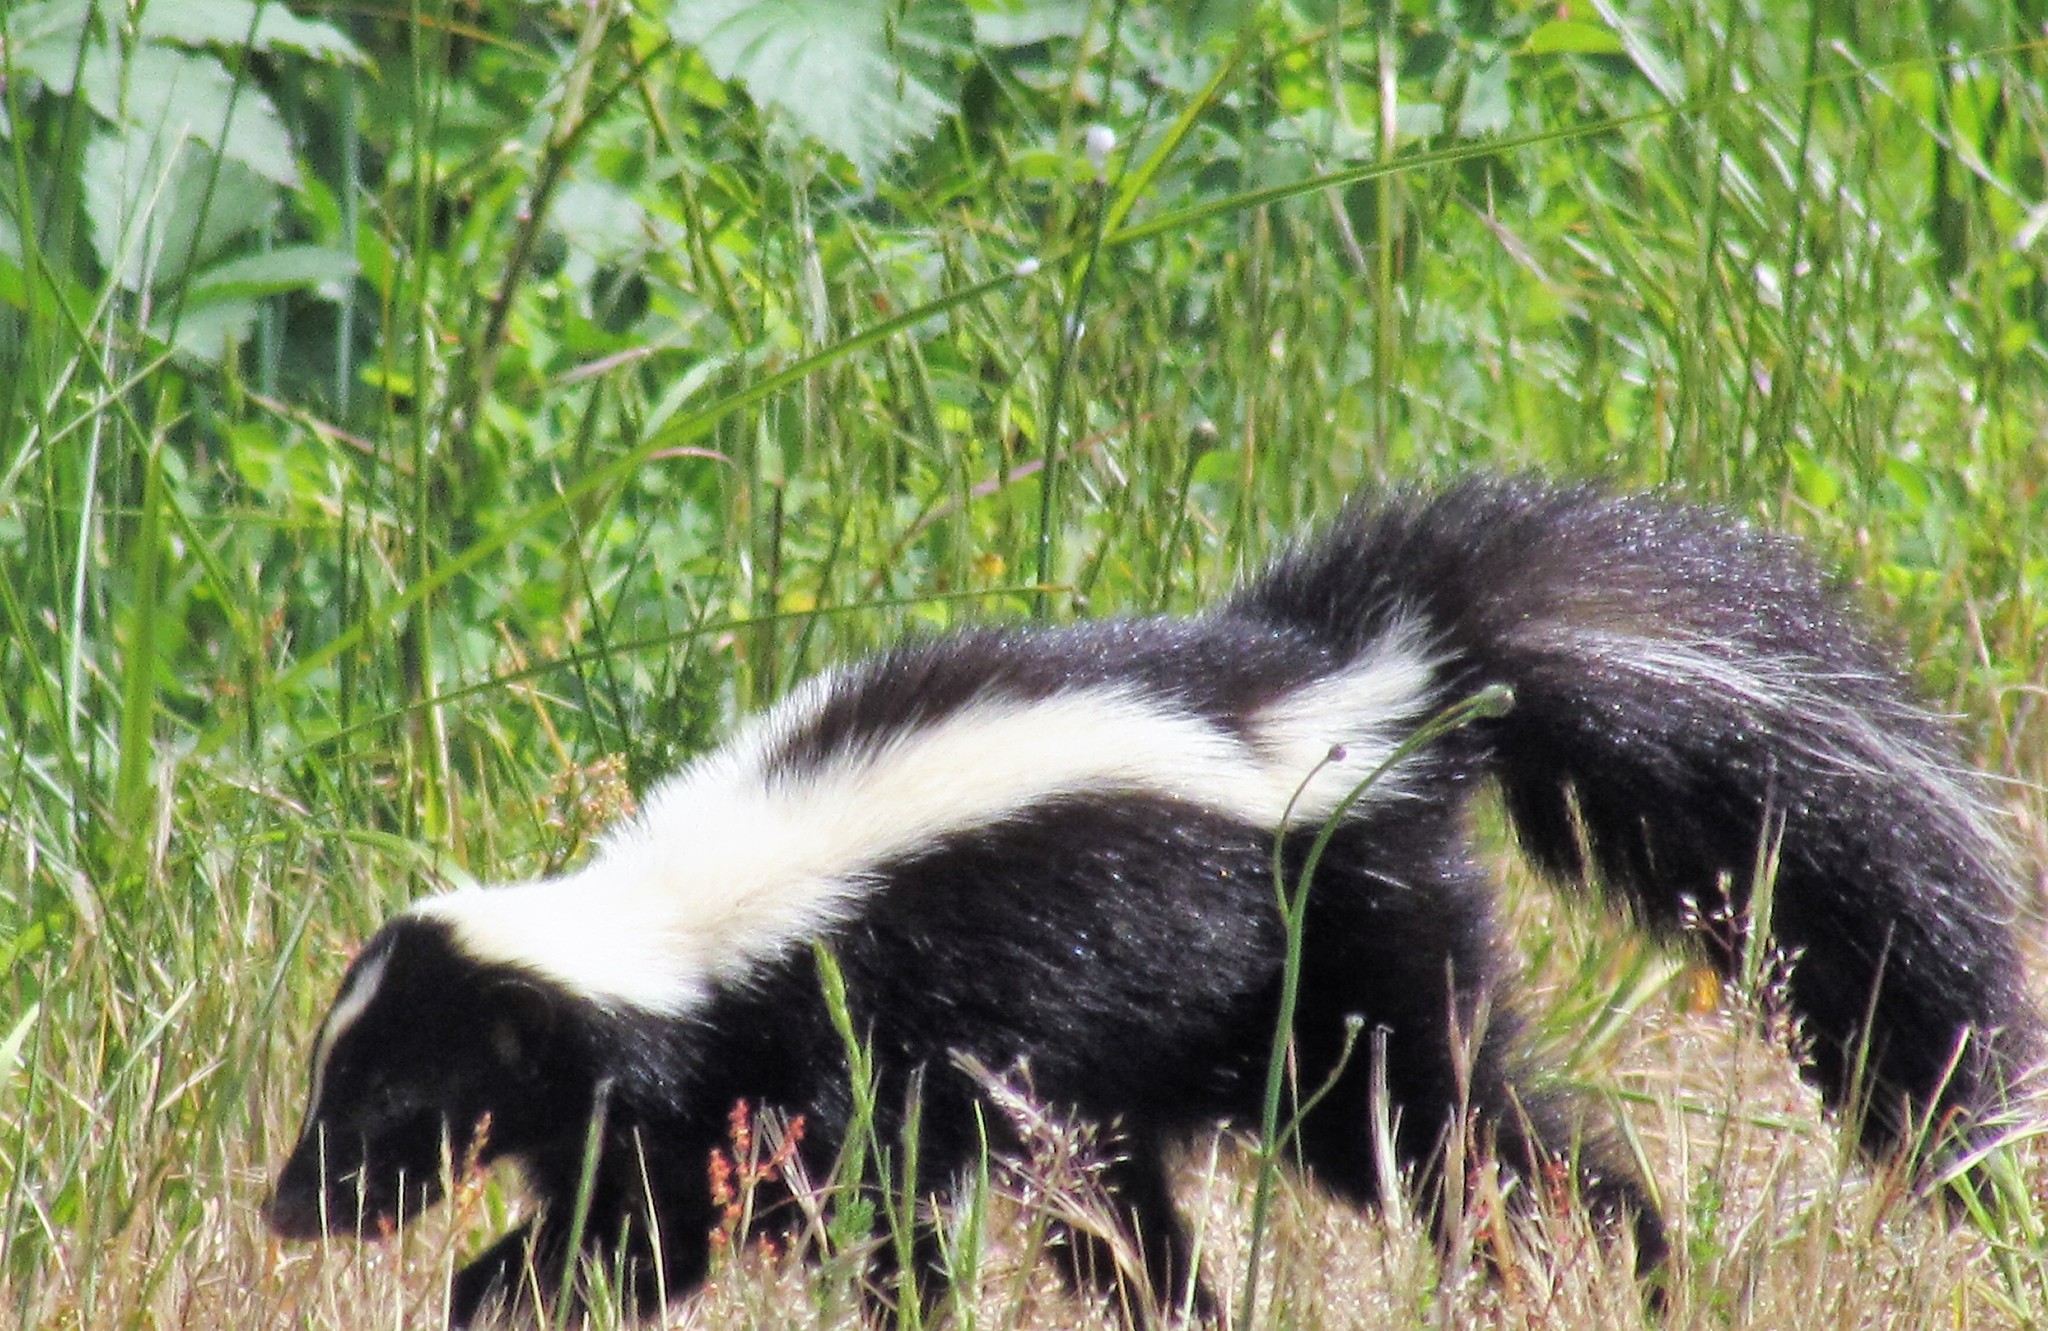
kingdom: Animalia
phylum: Chordata
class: Mammalia
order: Carnivora
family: Mephitidae
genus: Mephitis
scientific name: Mephitis mephitis
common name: Striped skunk
